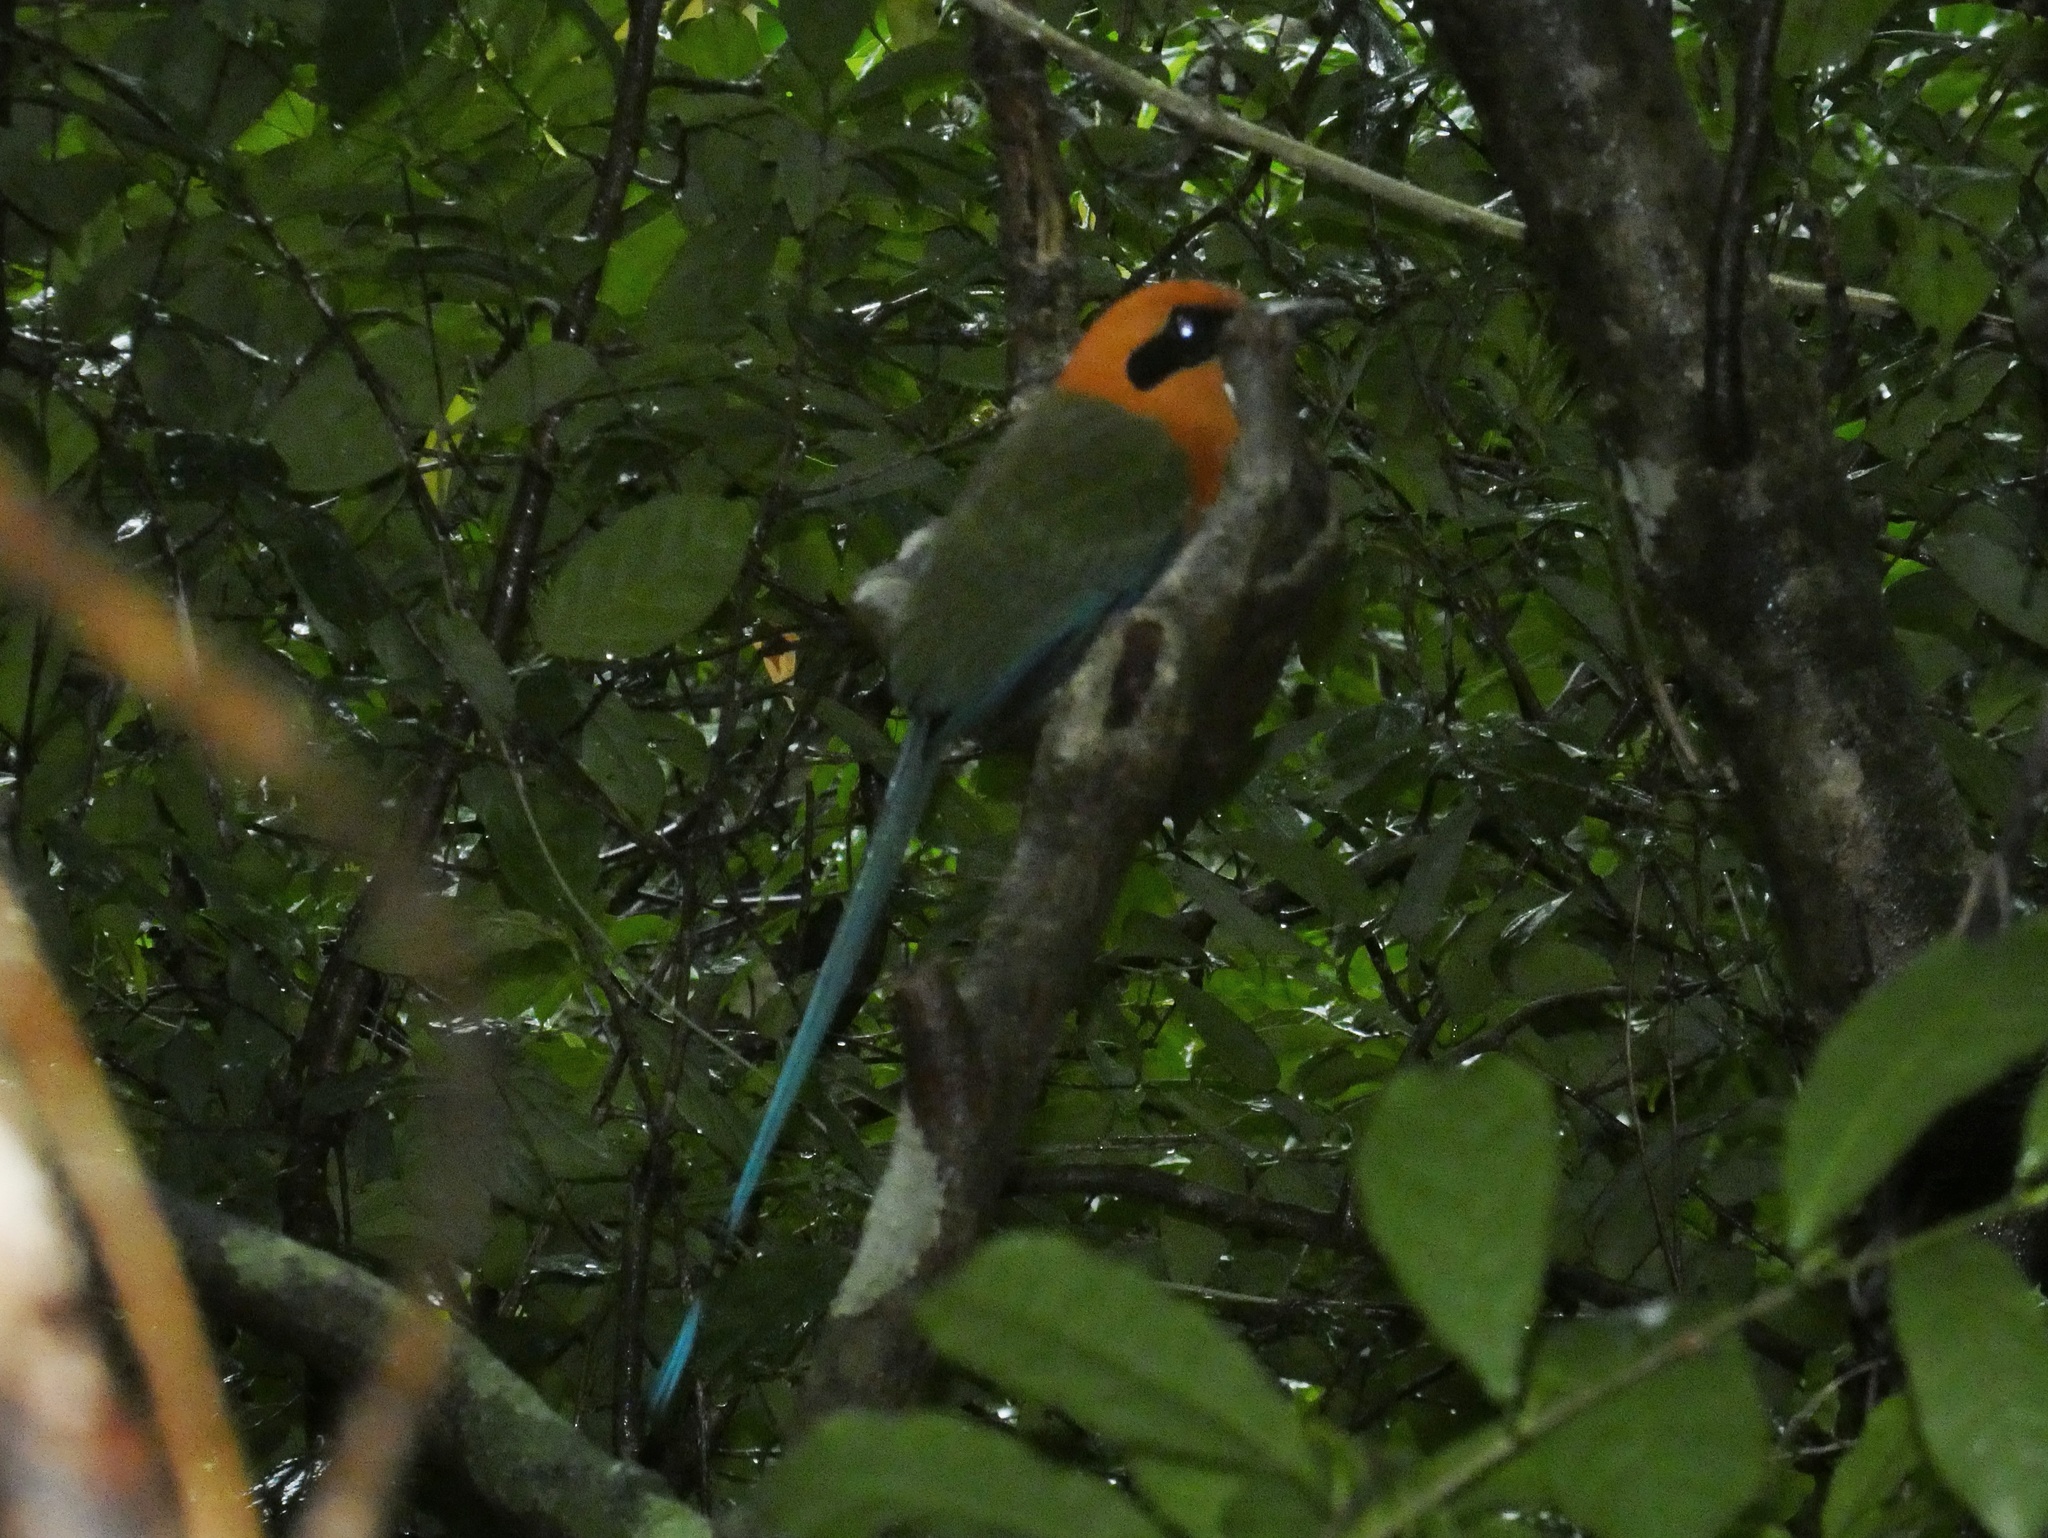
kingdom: Animalia
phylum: Chordata
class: Aves
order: Coraciiformes
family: Momotidae
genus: Baryphthengus
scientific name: Baryphthengus martii
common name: Rufous motmot
